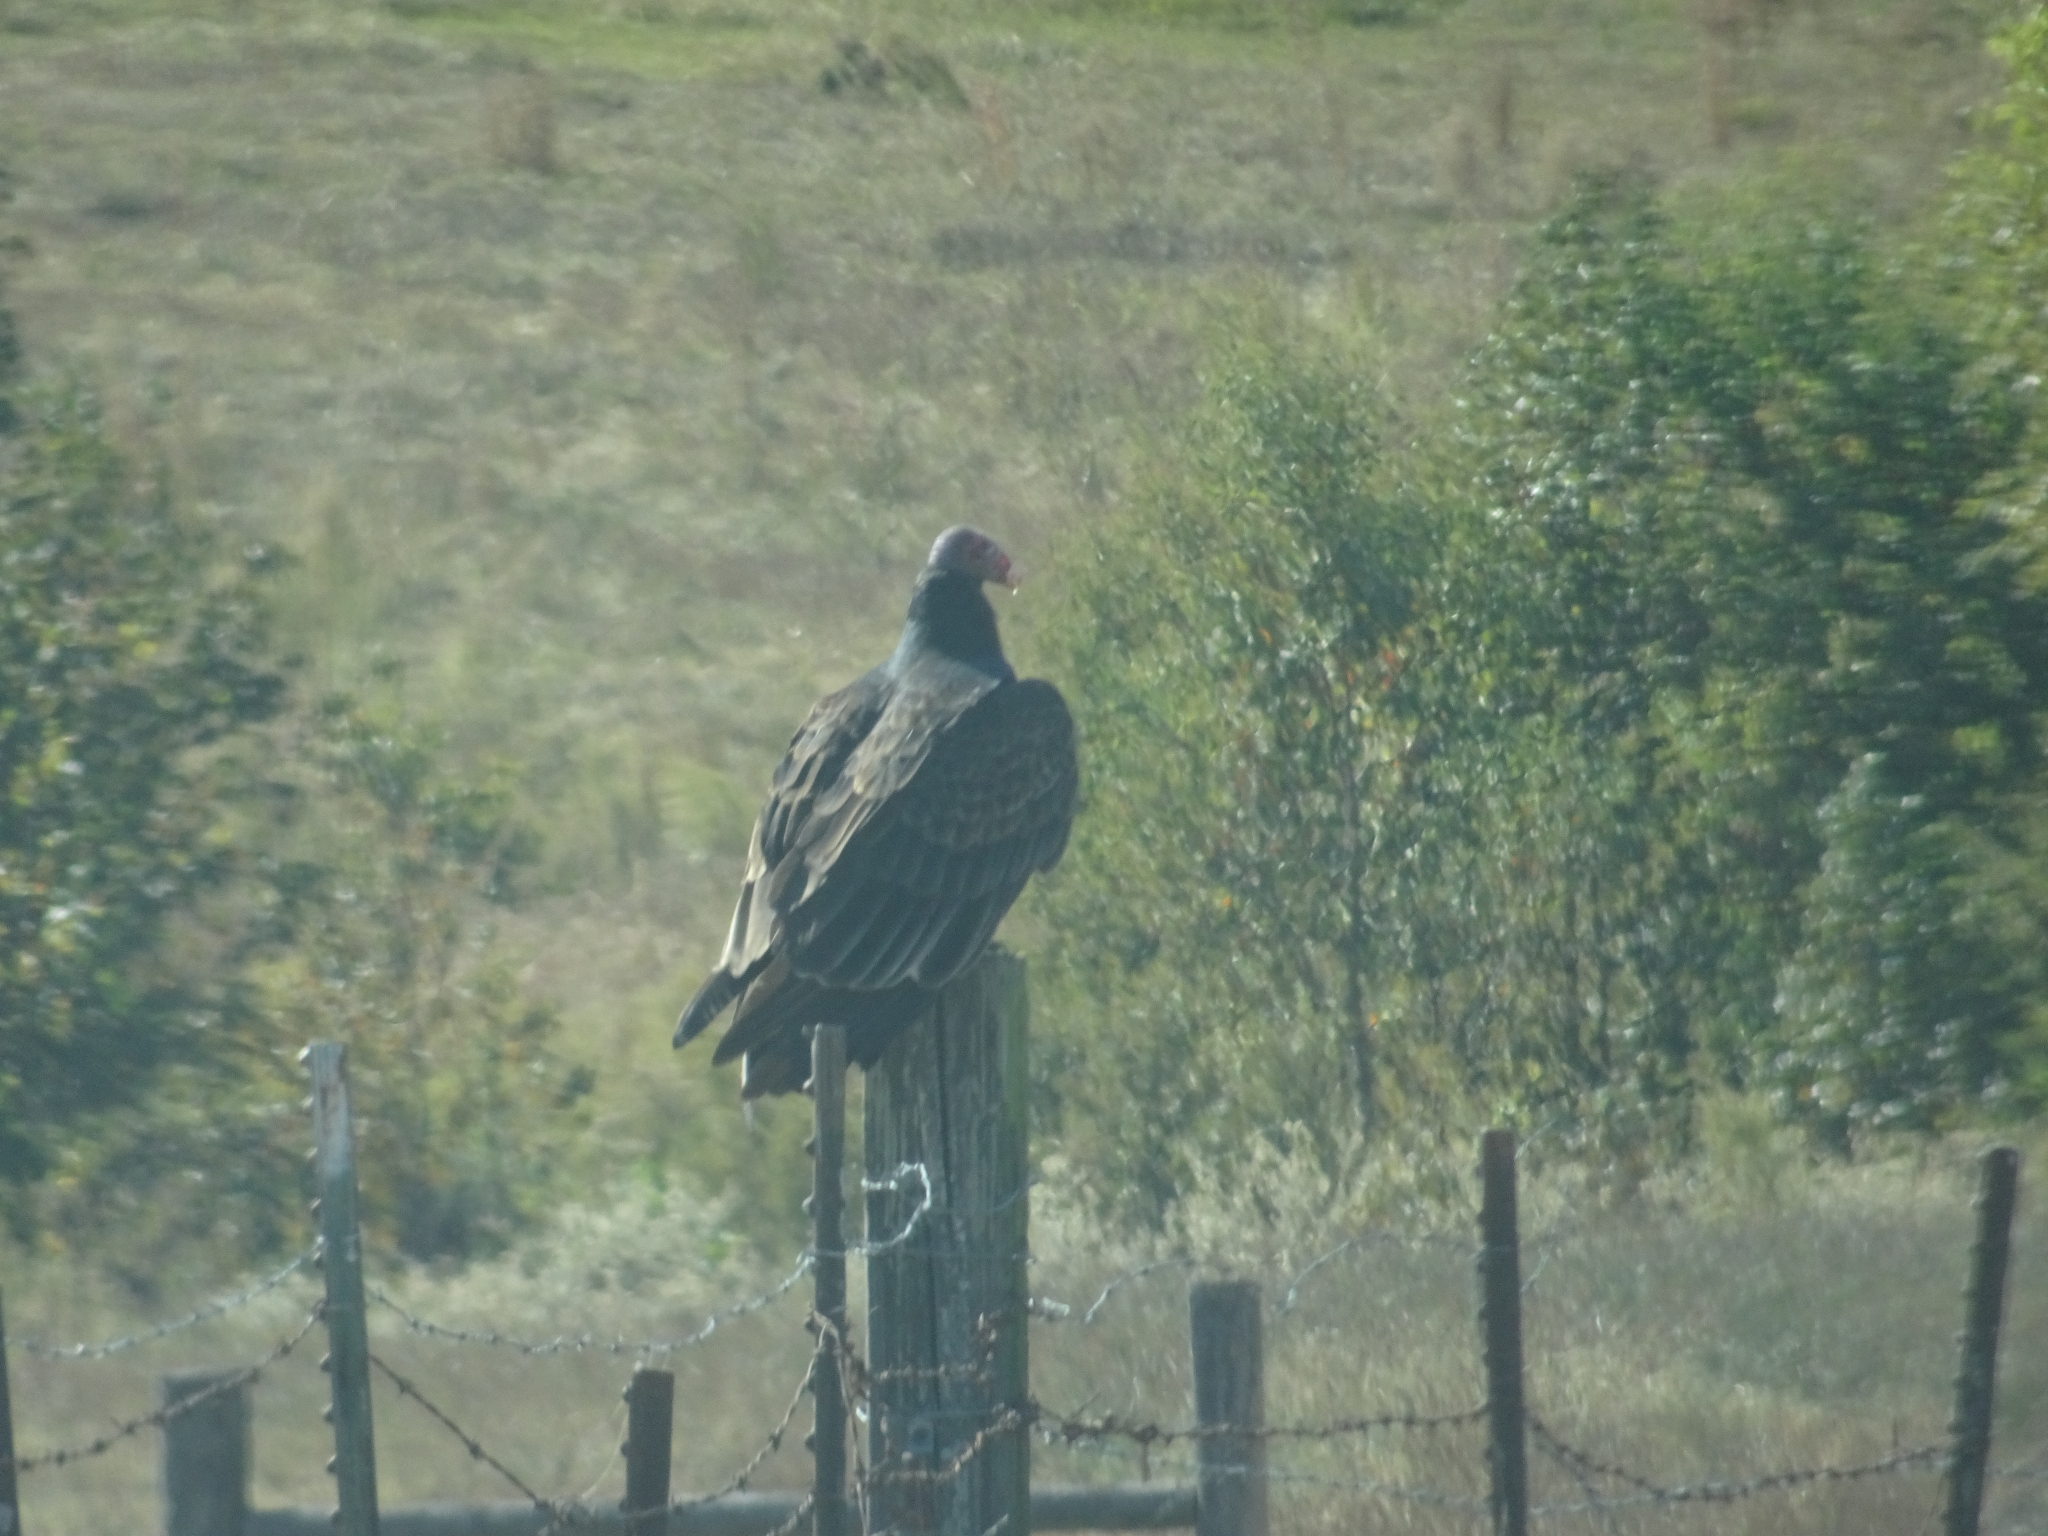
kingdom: Animalia
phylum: Chordata
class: Aves
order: Accipitriformes
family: Cathartidae
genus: Cathartes
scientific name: Cathartes aura
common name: Turkey vulture
